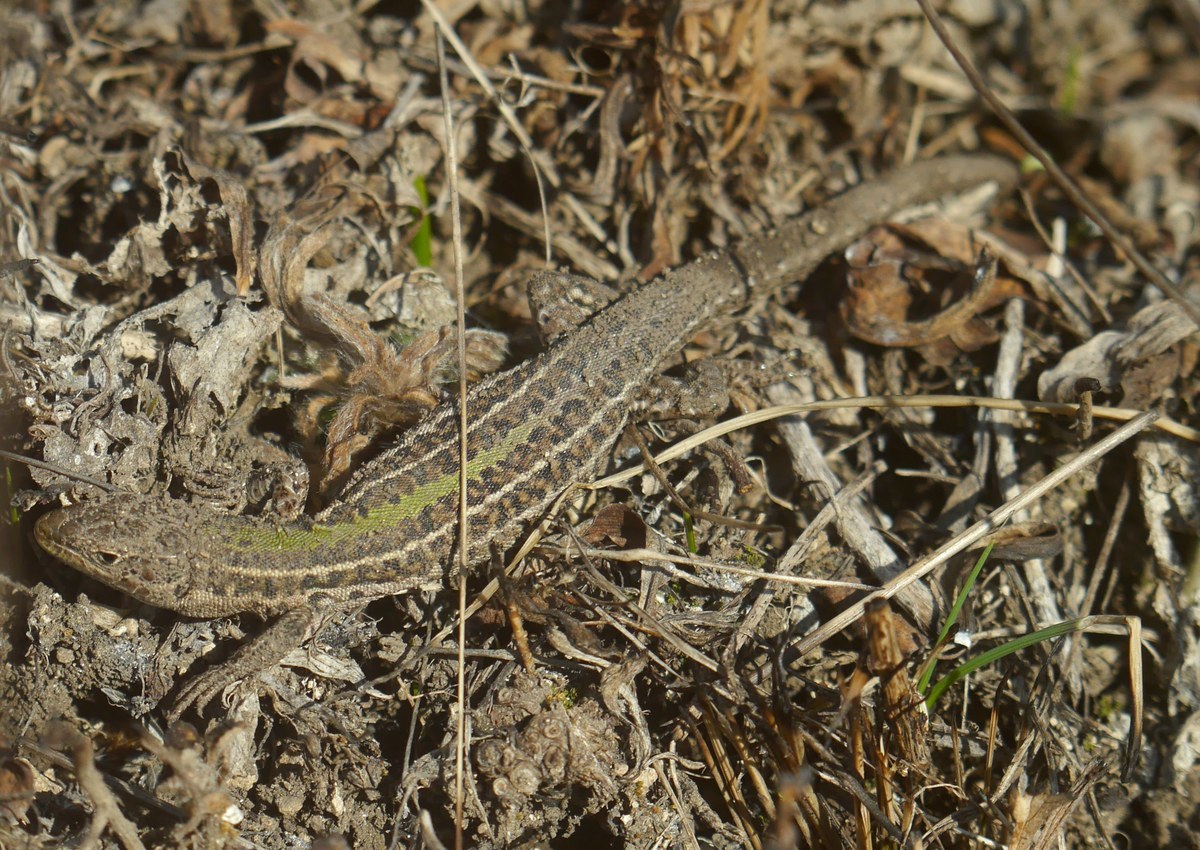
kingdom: Animalia
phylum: Chordata
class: Squamata
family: Lacertidae
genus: Podarcis
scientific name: Podarcis tauricus
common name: Balkan wall lizard
